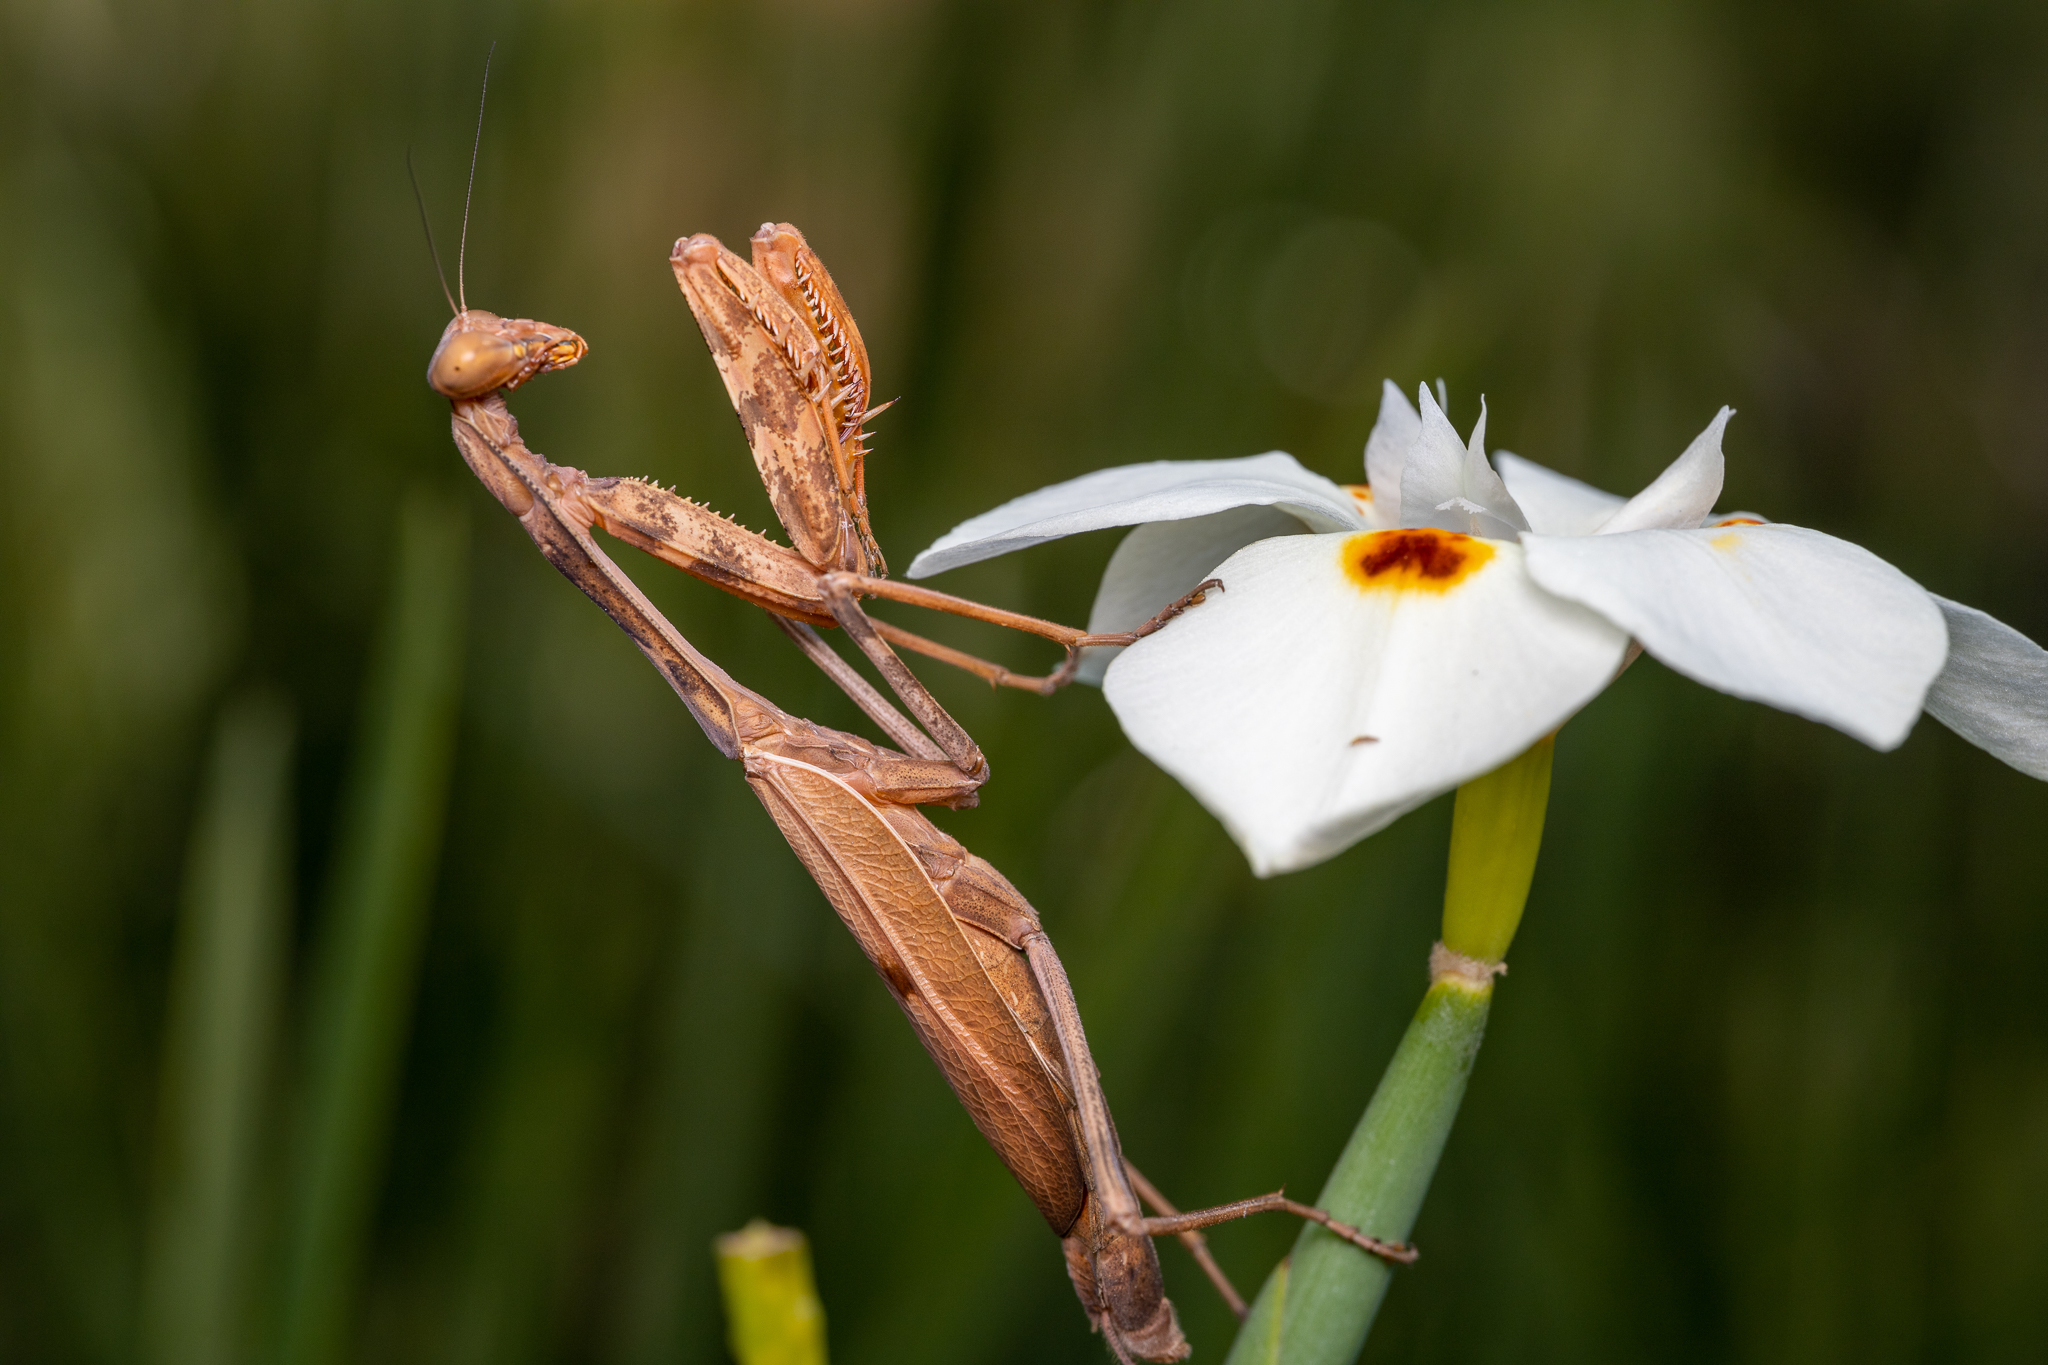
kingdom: Animalia
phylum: Arthropoda
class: Insecta
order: Mantodea
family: Mantidae
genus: Stagmomantis
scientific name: Stagmomantis limbata
